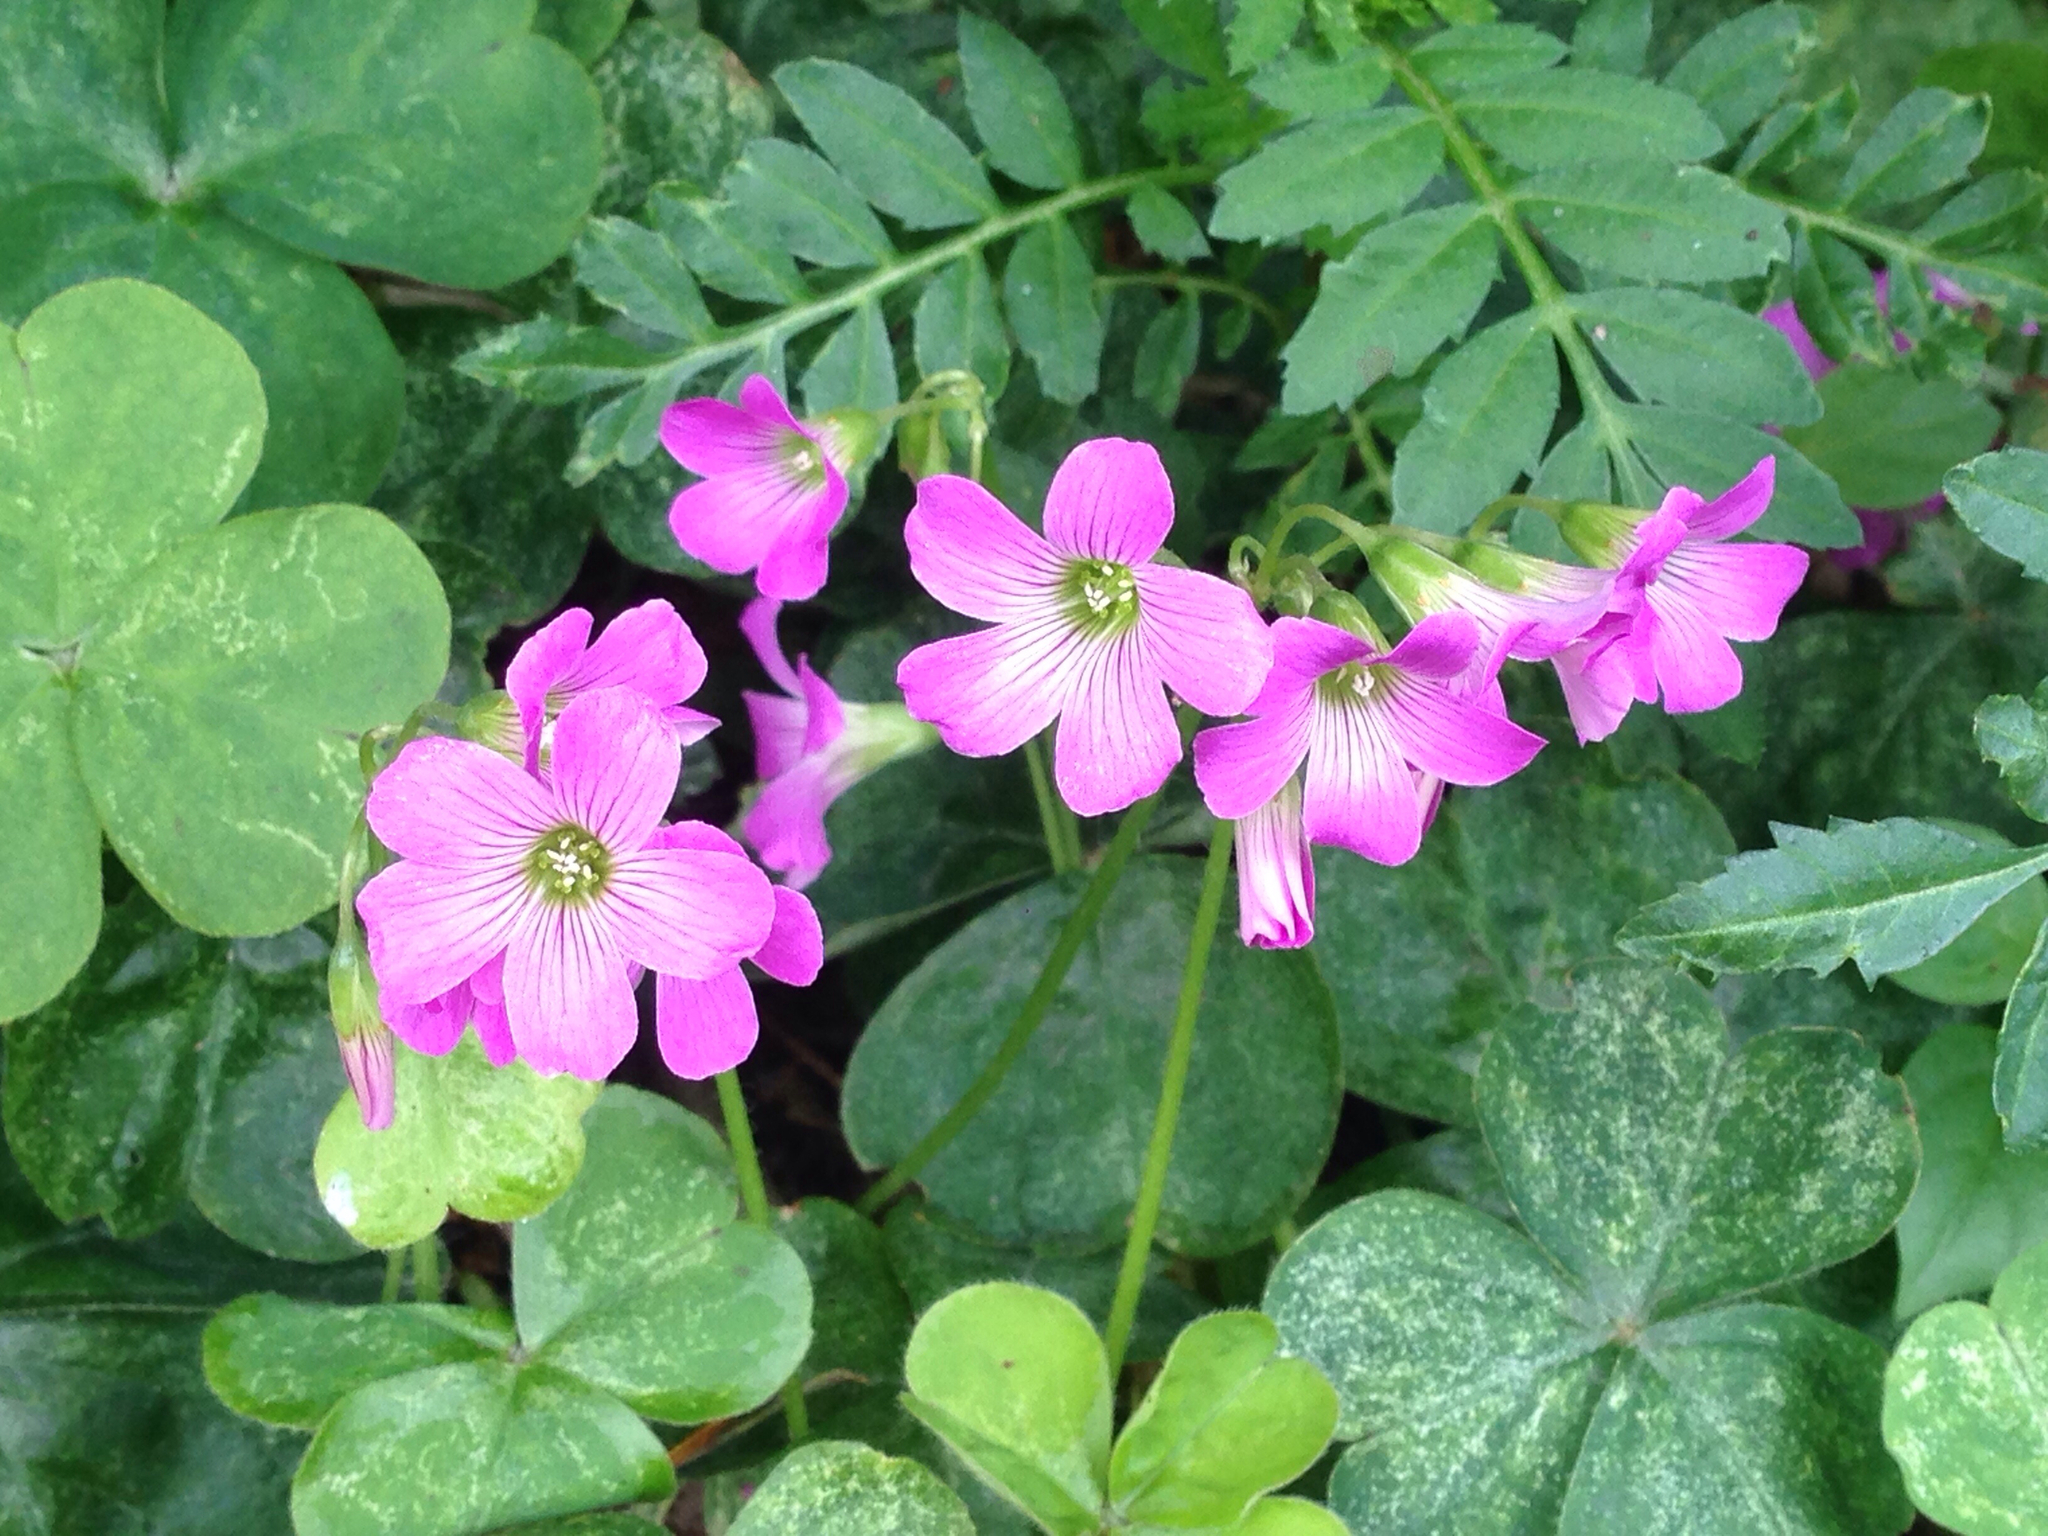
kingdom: Plantae
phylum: Tracheophyta
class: Magnoliopsida
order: Oxalidales
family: Oxalidaceae
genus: Oxalis
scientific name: Oxalis debilis
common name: Large-flowered pink-sorrel
